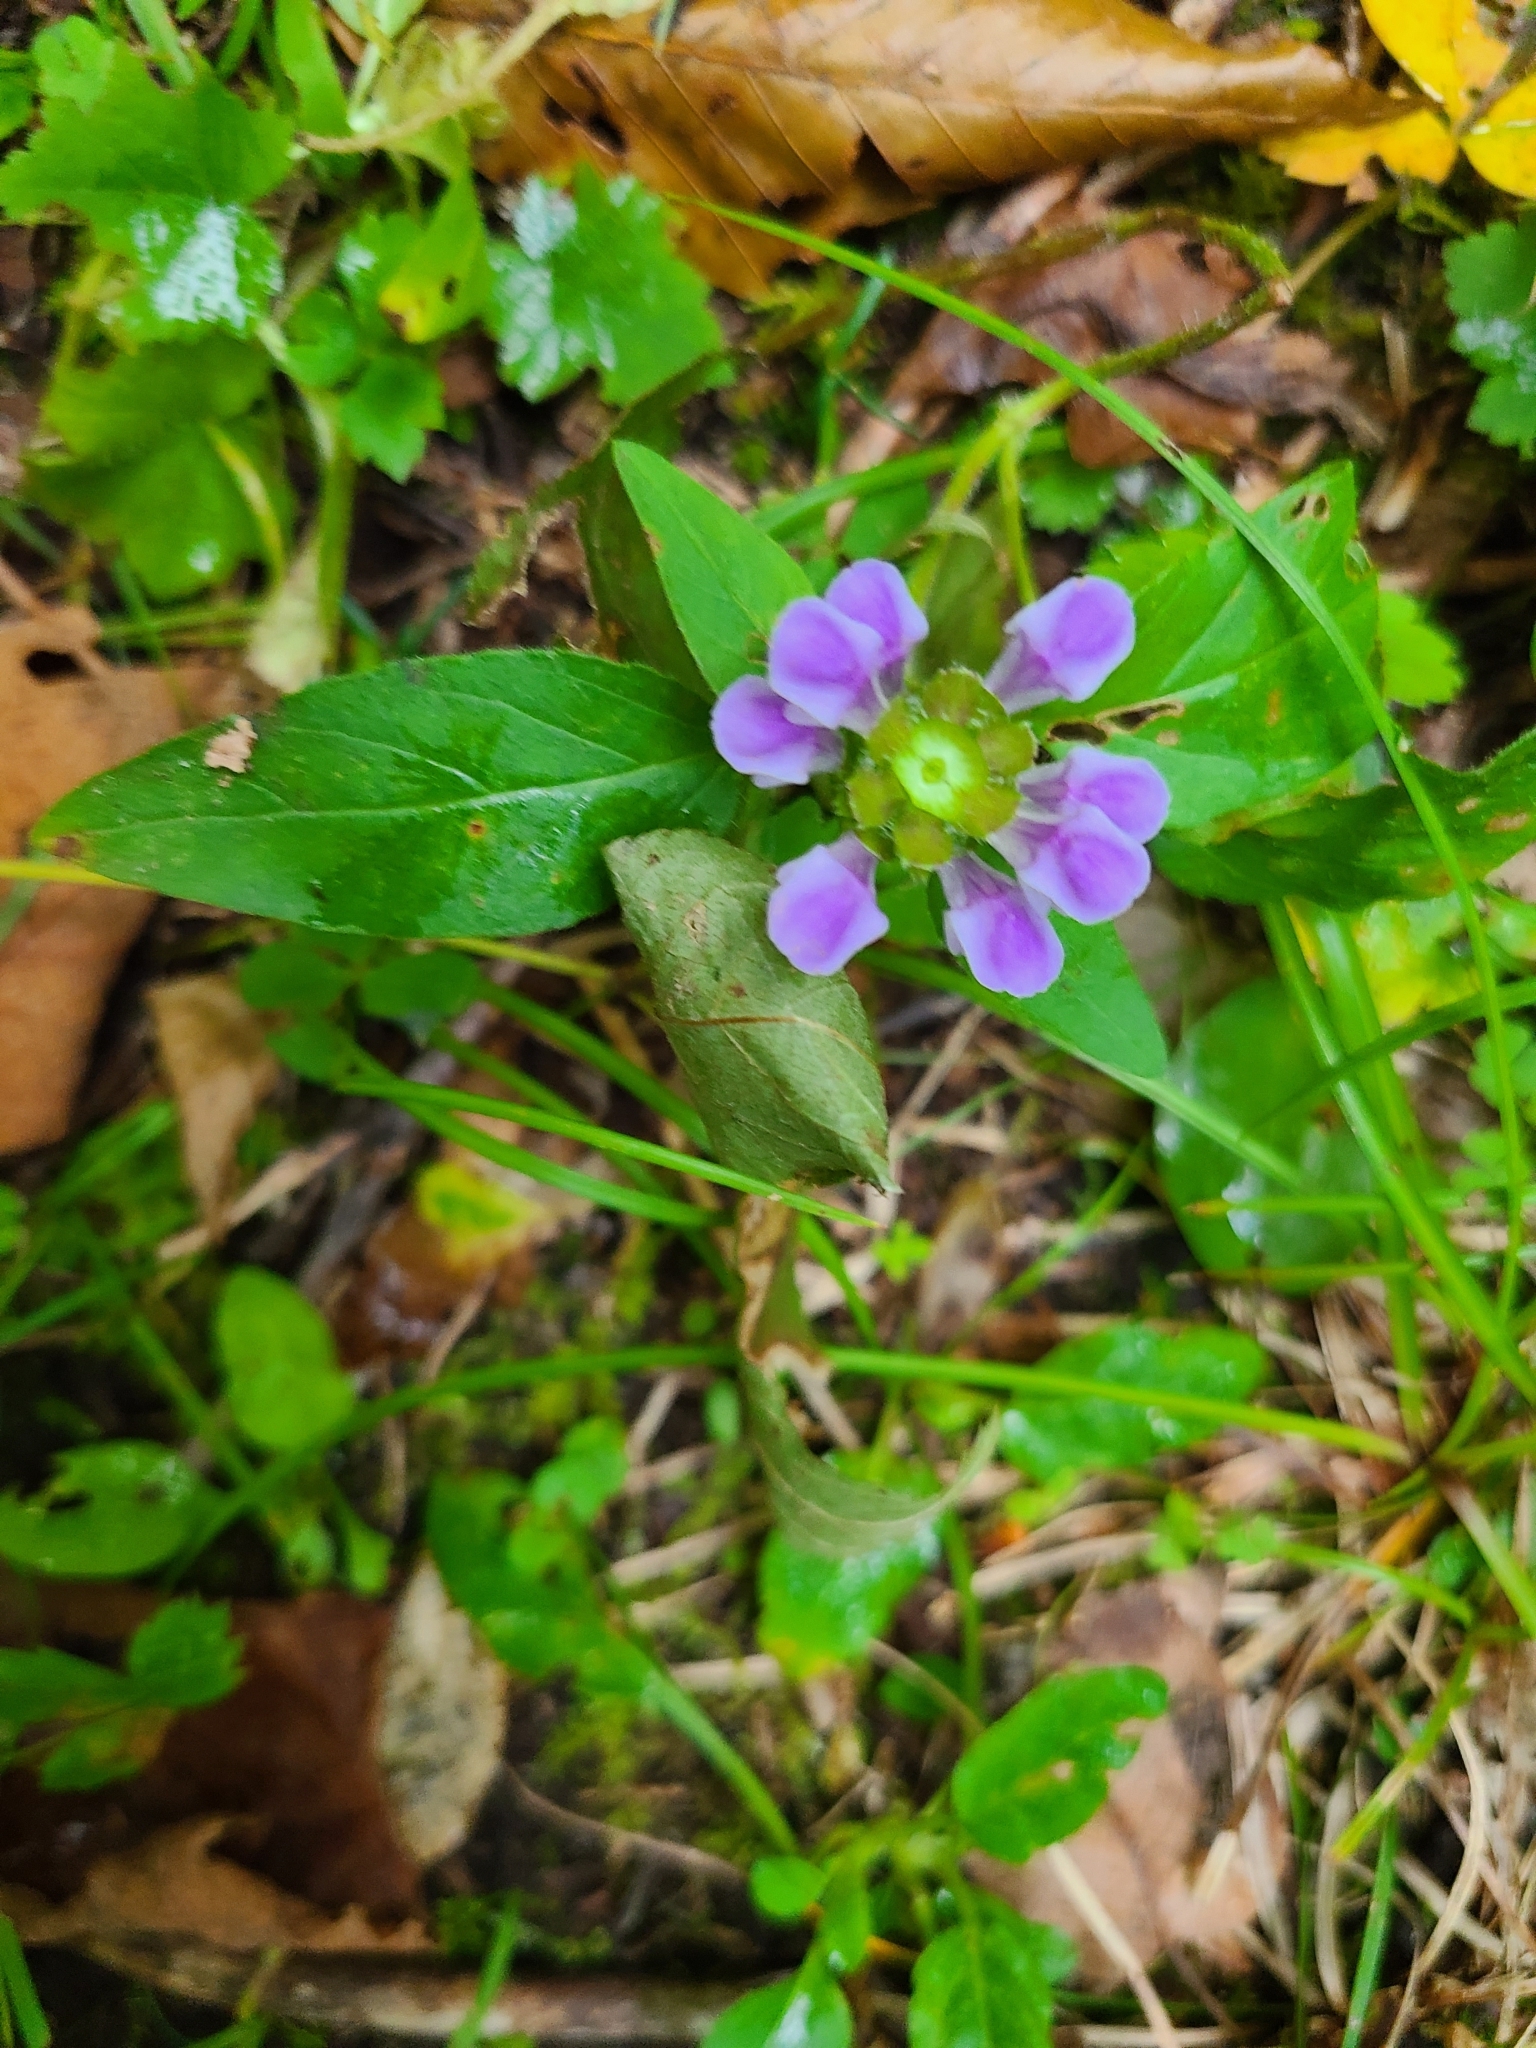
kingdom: Plantae
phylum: Tracheophyta
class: Magnoliopsida
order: Lamiales
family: Lamiaceae
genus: Prunella
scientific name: Prunella vulgaris
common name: Heal-all
